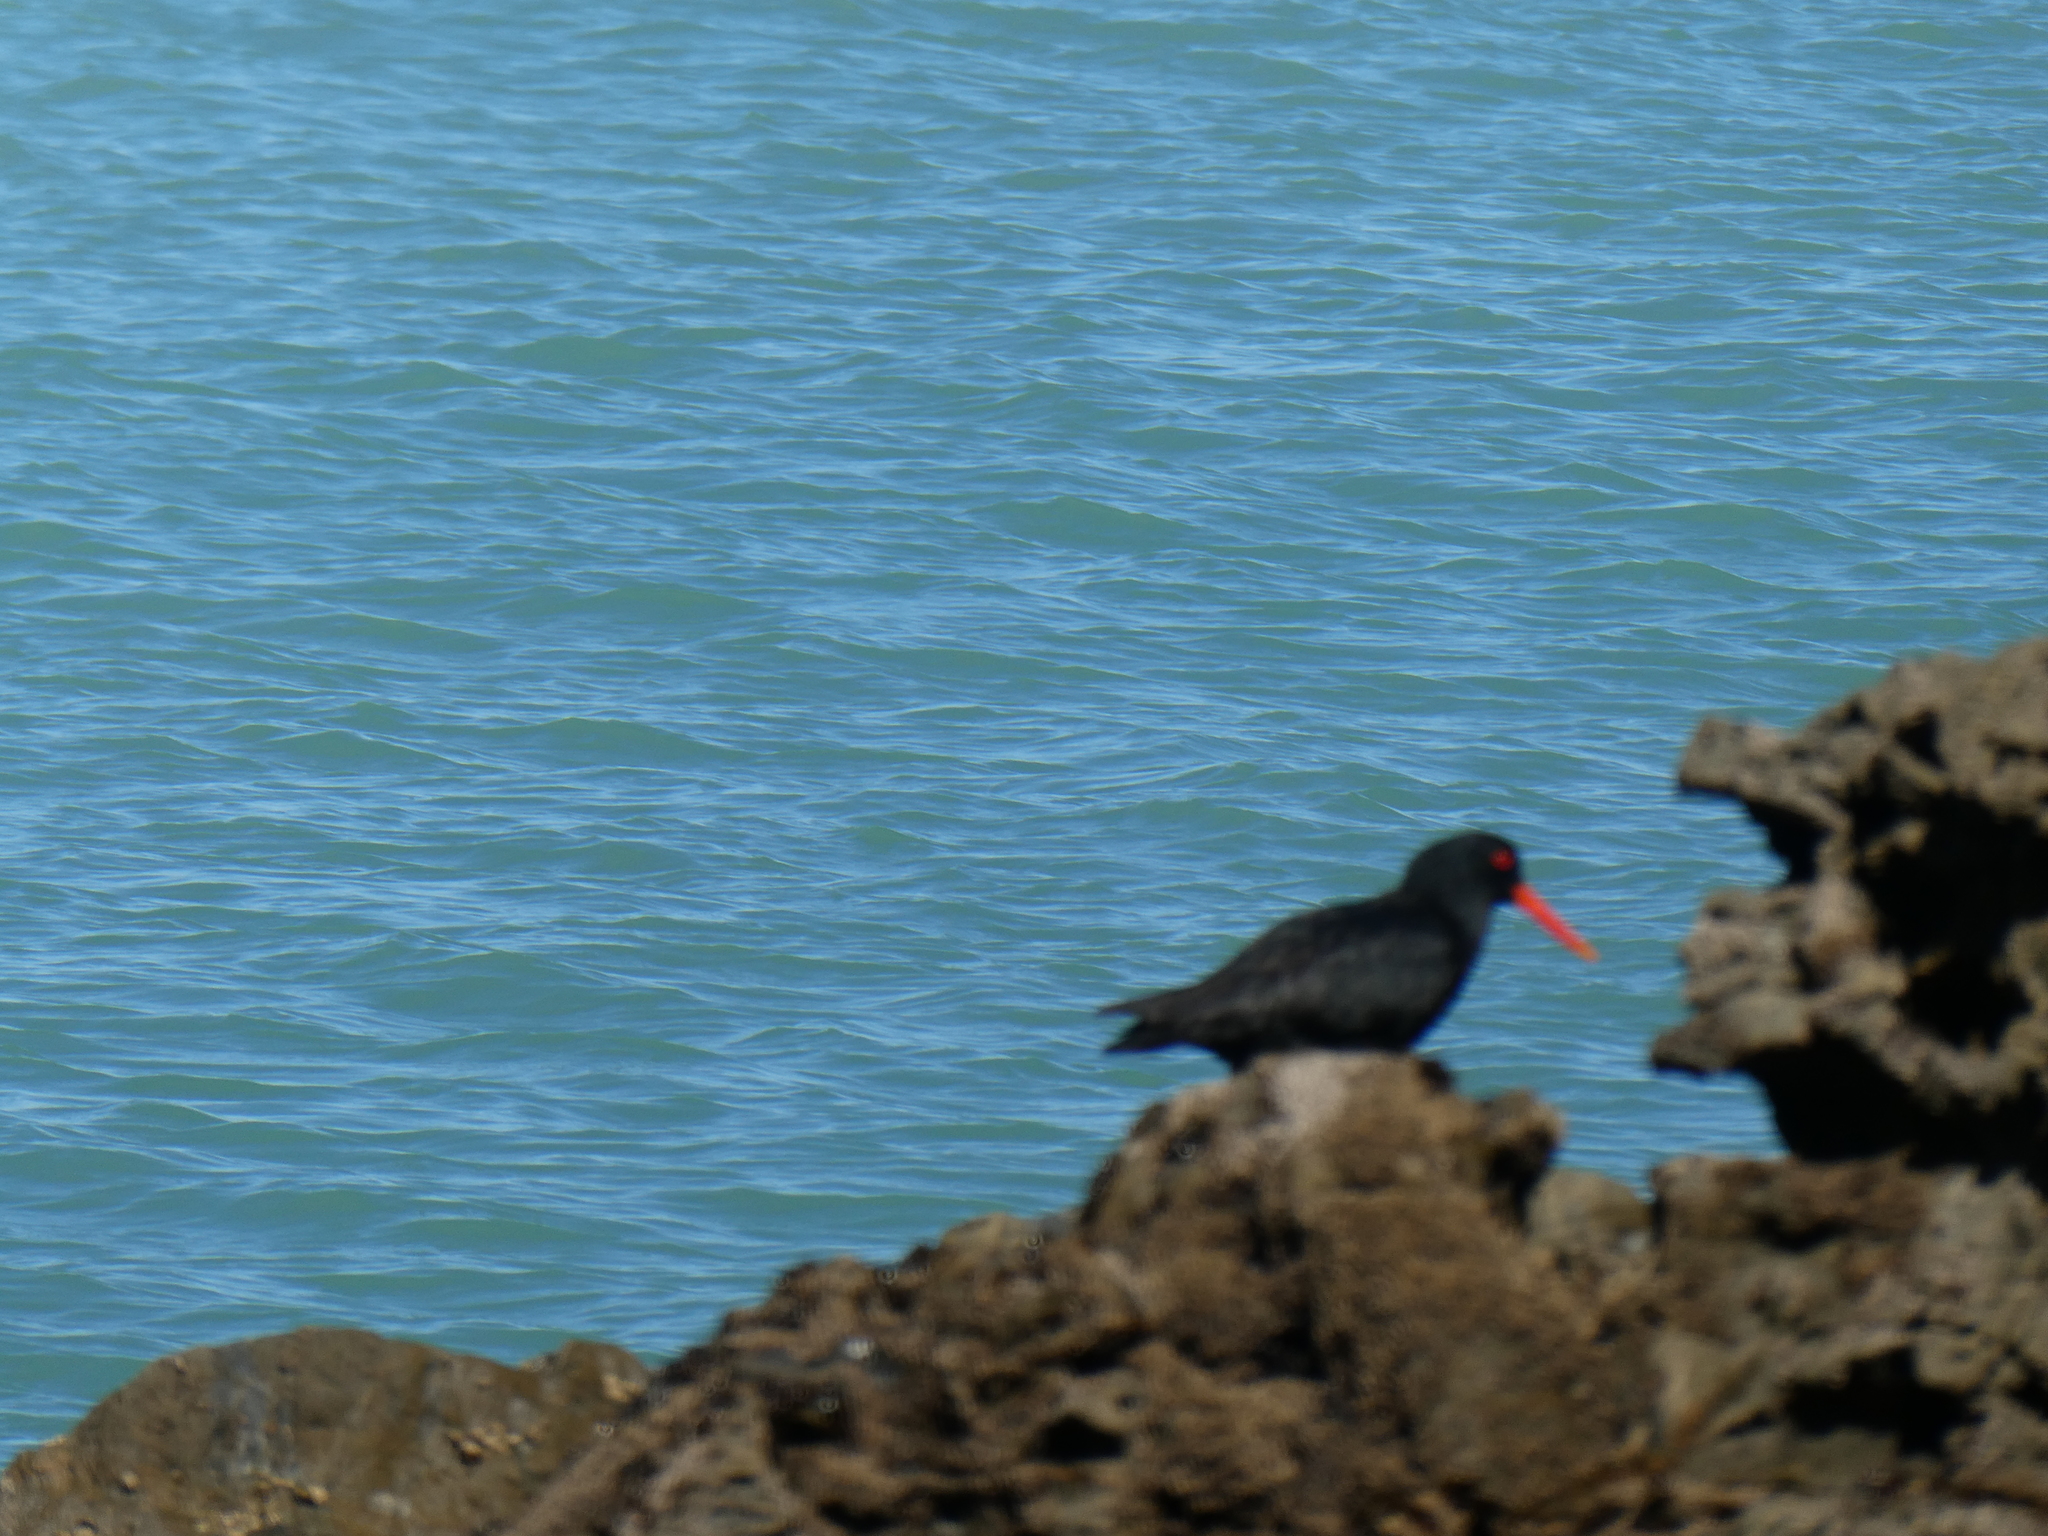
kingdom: Animalia
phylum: Chordata
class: Aves
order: Charadriiformes
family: Haematopodidae
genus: Haematopus
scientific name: Haematopus unicolor
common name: Variable oystercatcher
